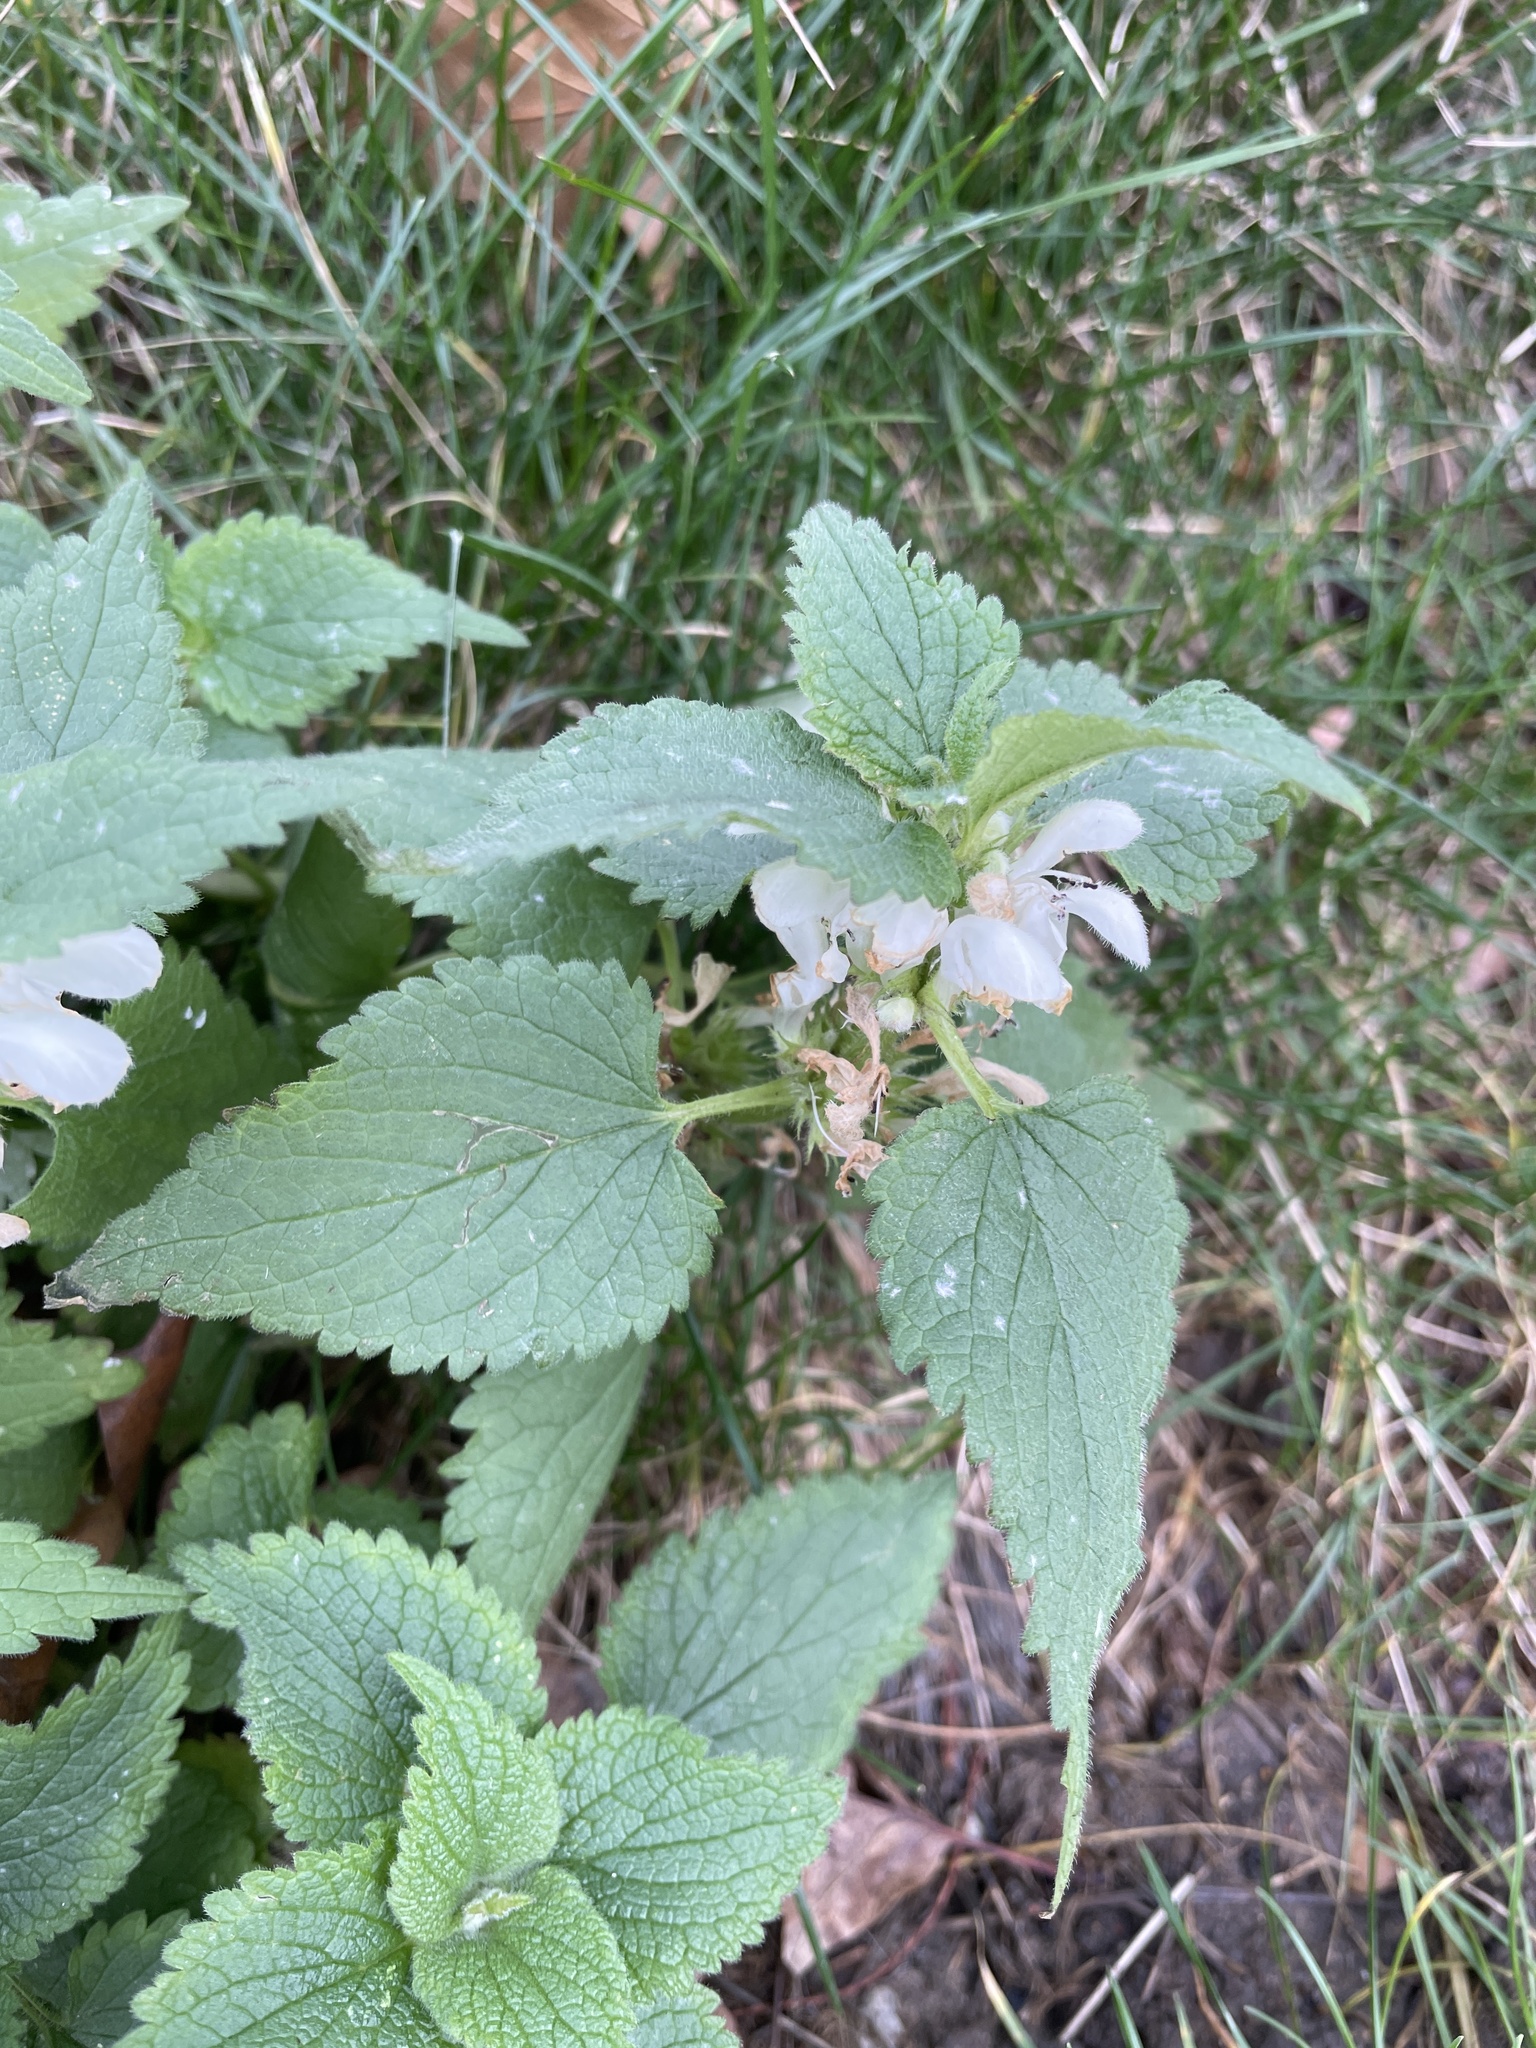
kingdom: Plantae
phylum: Tracheophyta
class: Magnoliopsida
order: Lamiales
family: Lamiaceae
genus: Lamium
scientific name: Lamium album
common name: White dead-nettle
